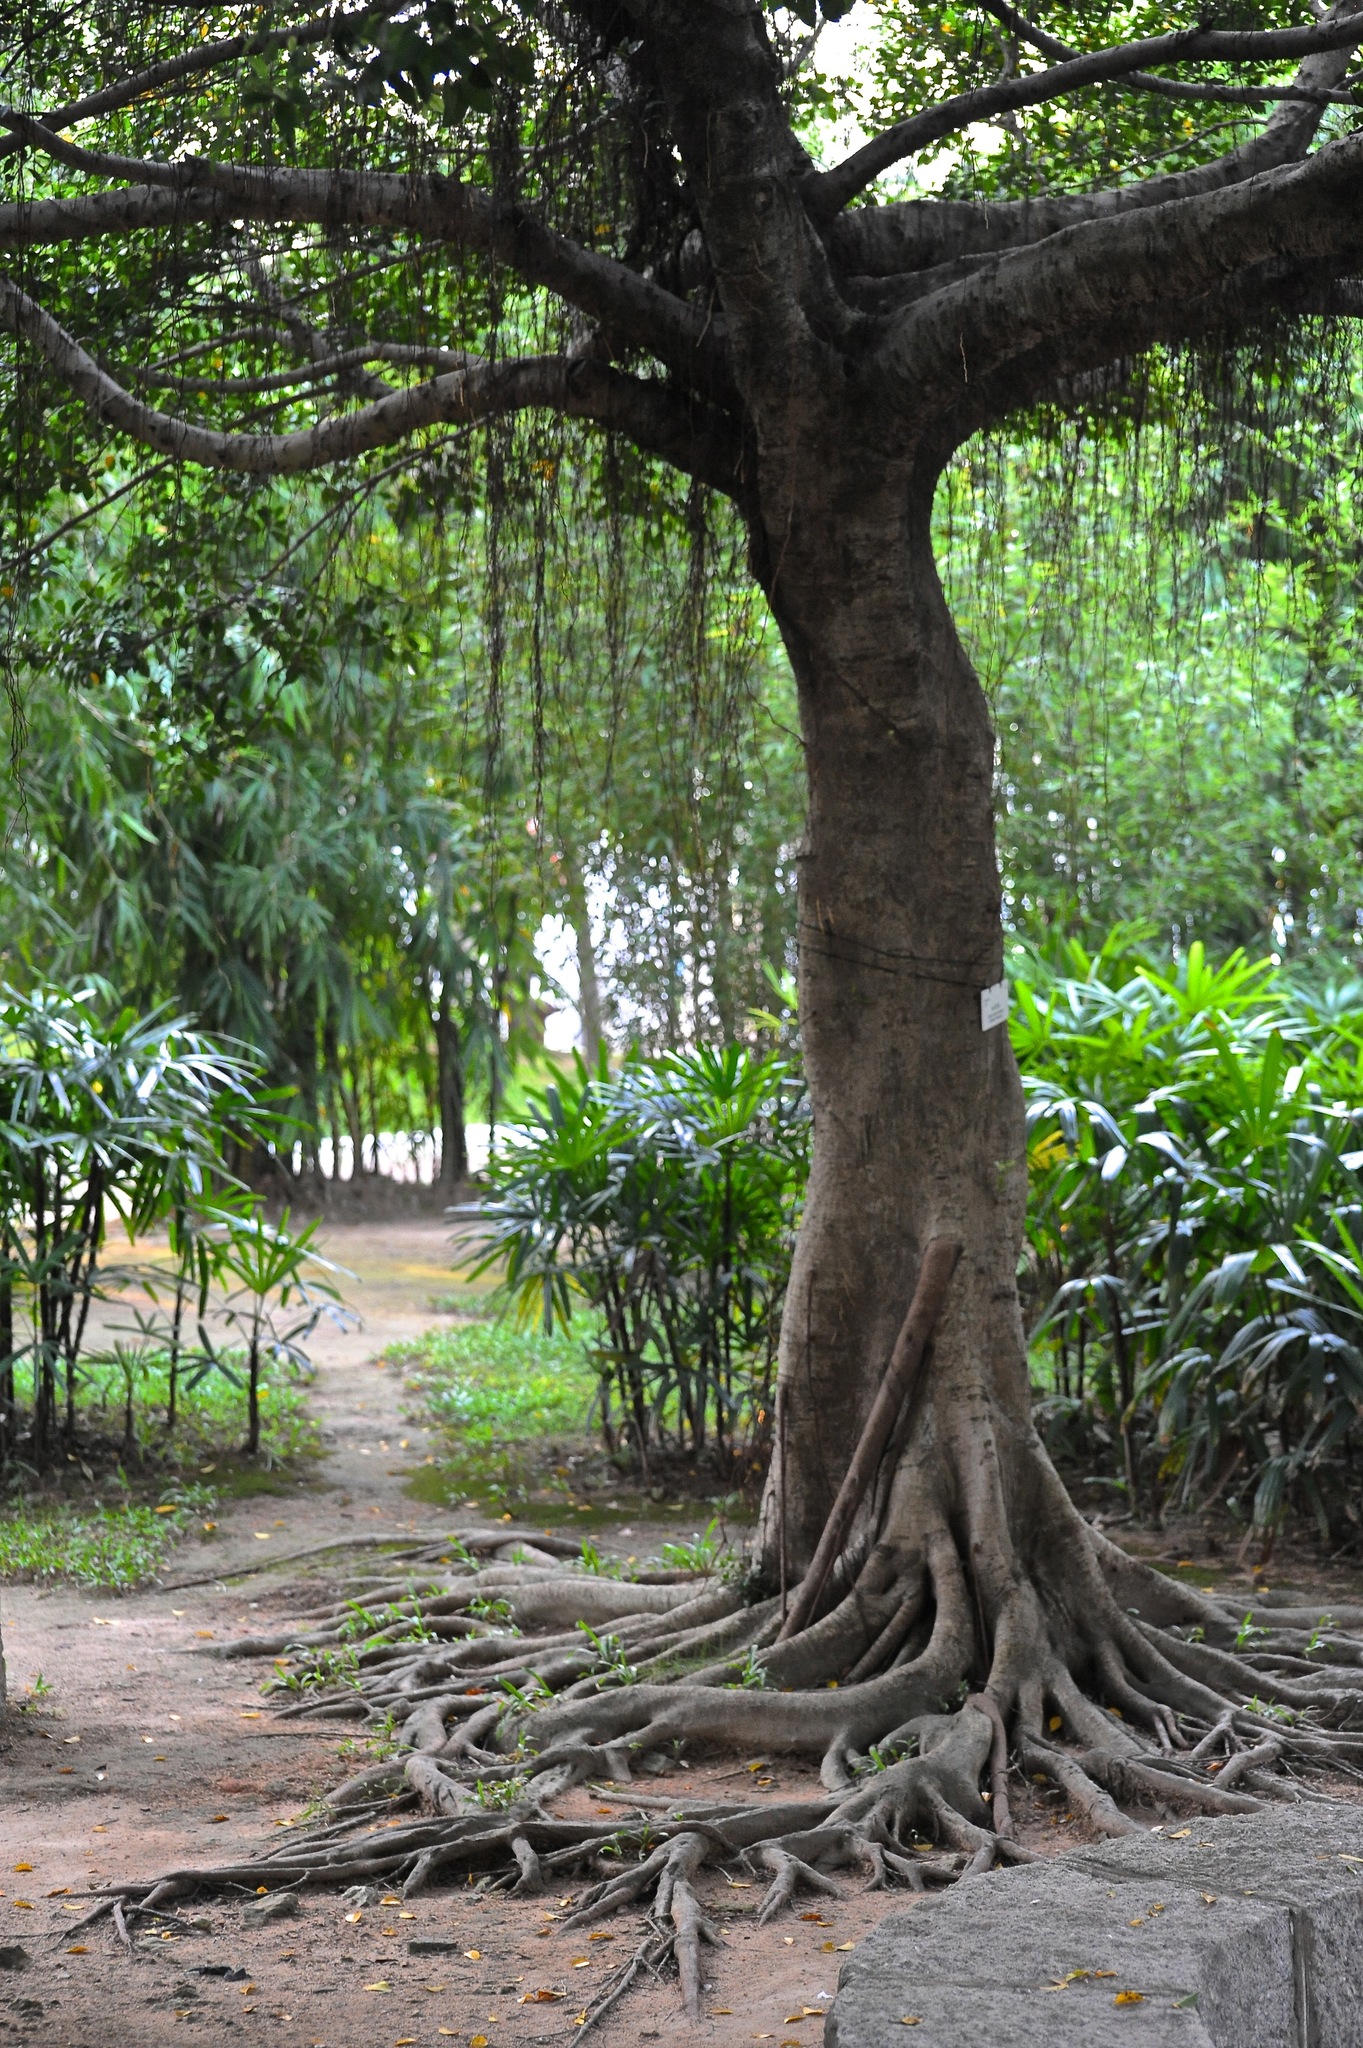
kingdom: Plantae
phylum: Tracheophyta
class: Magnoliopsida
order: Rosales
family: Moraceae
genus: Ficus
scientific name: Ficus microcarpa
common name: Chinese banyan
